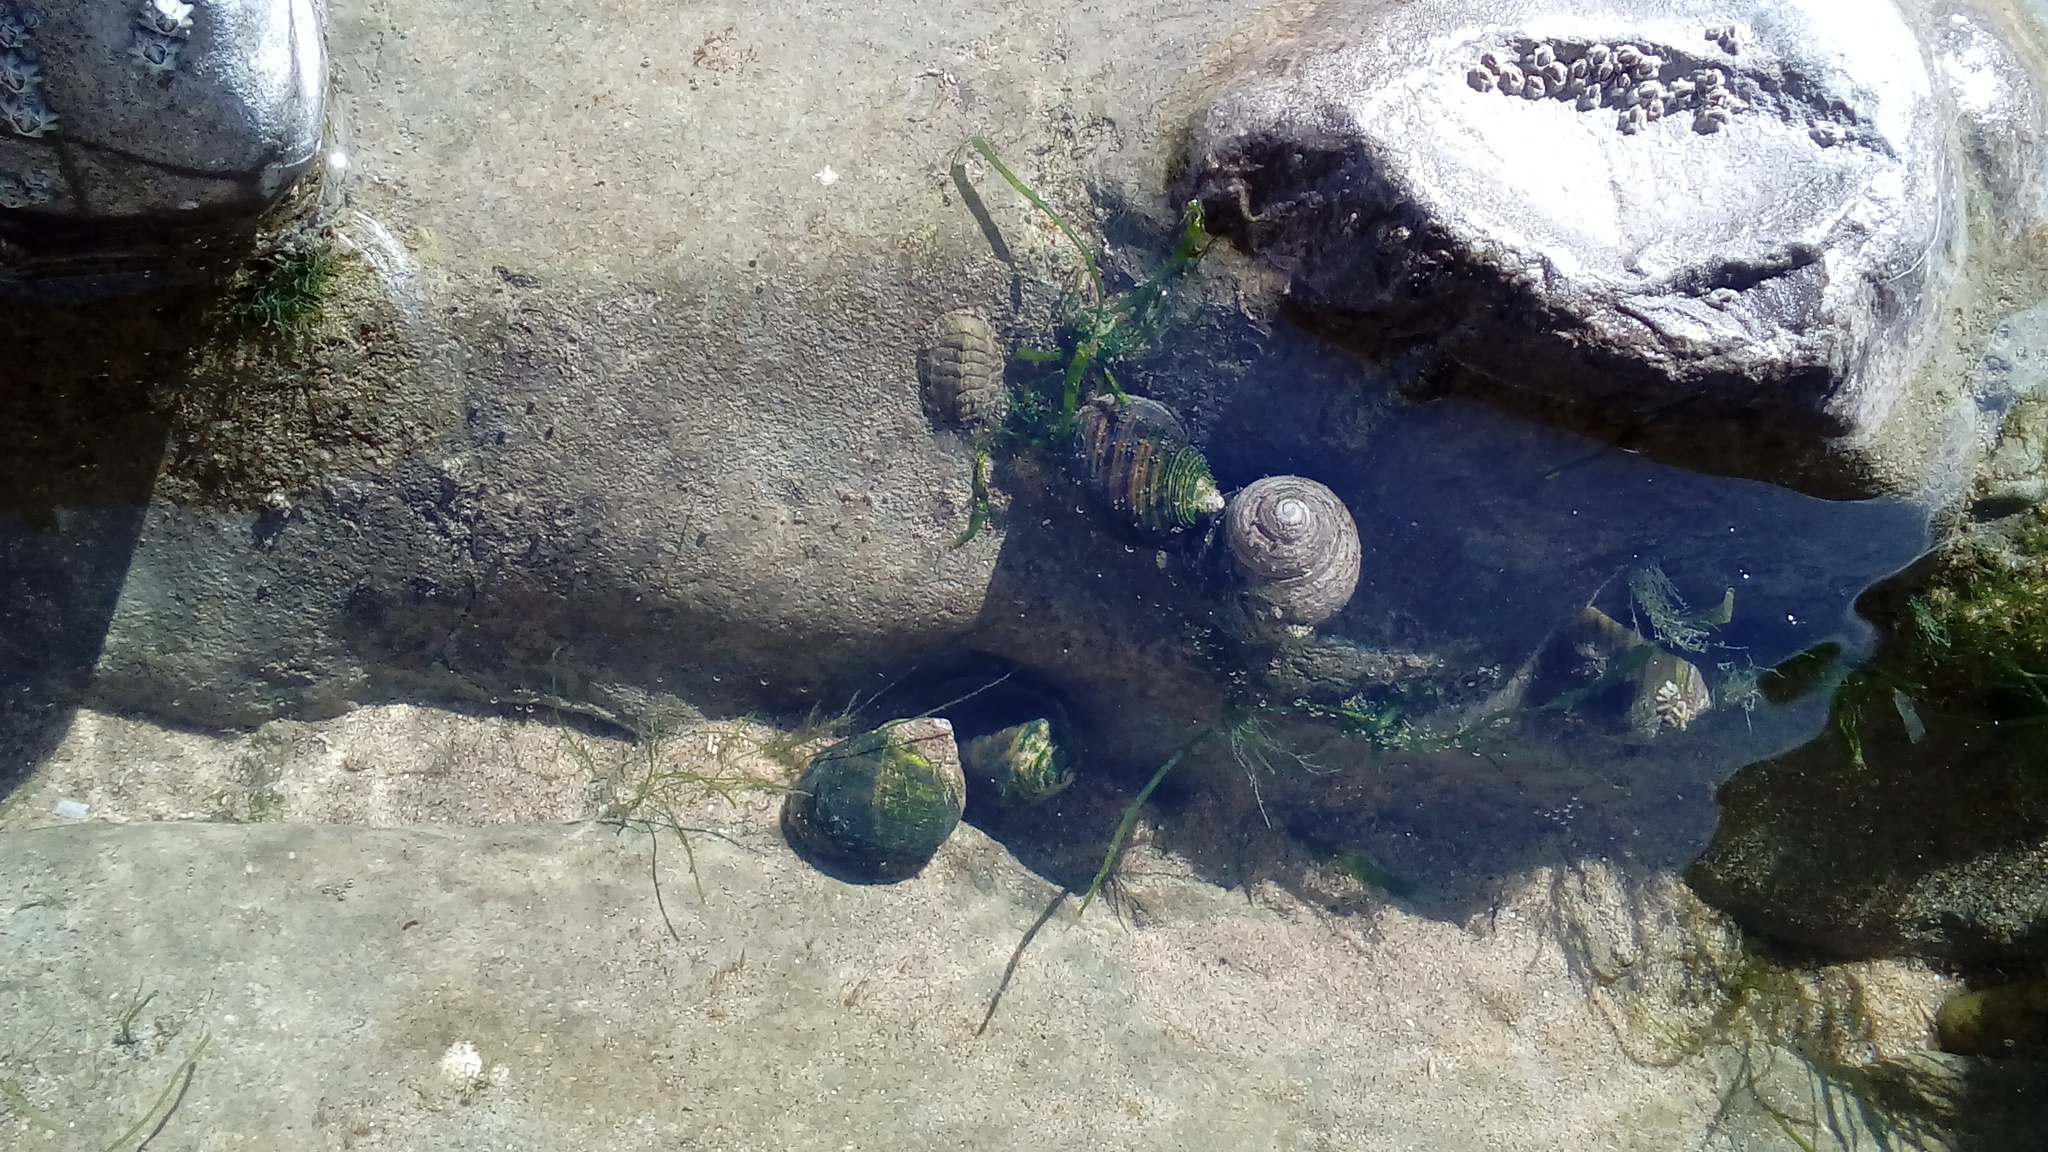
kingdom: Animalia
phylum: Mollusca
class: Gastropoda
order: Littorinimorpha
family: Littorinidae
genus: Littorina
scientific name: Littorina littorea
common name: Common periwinkle
